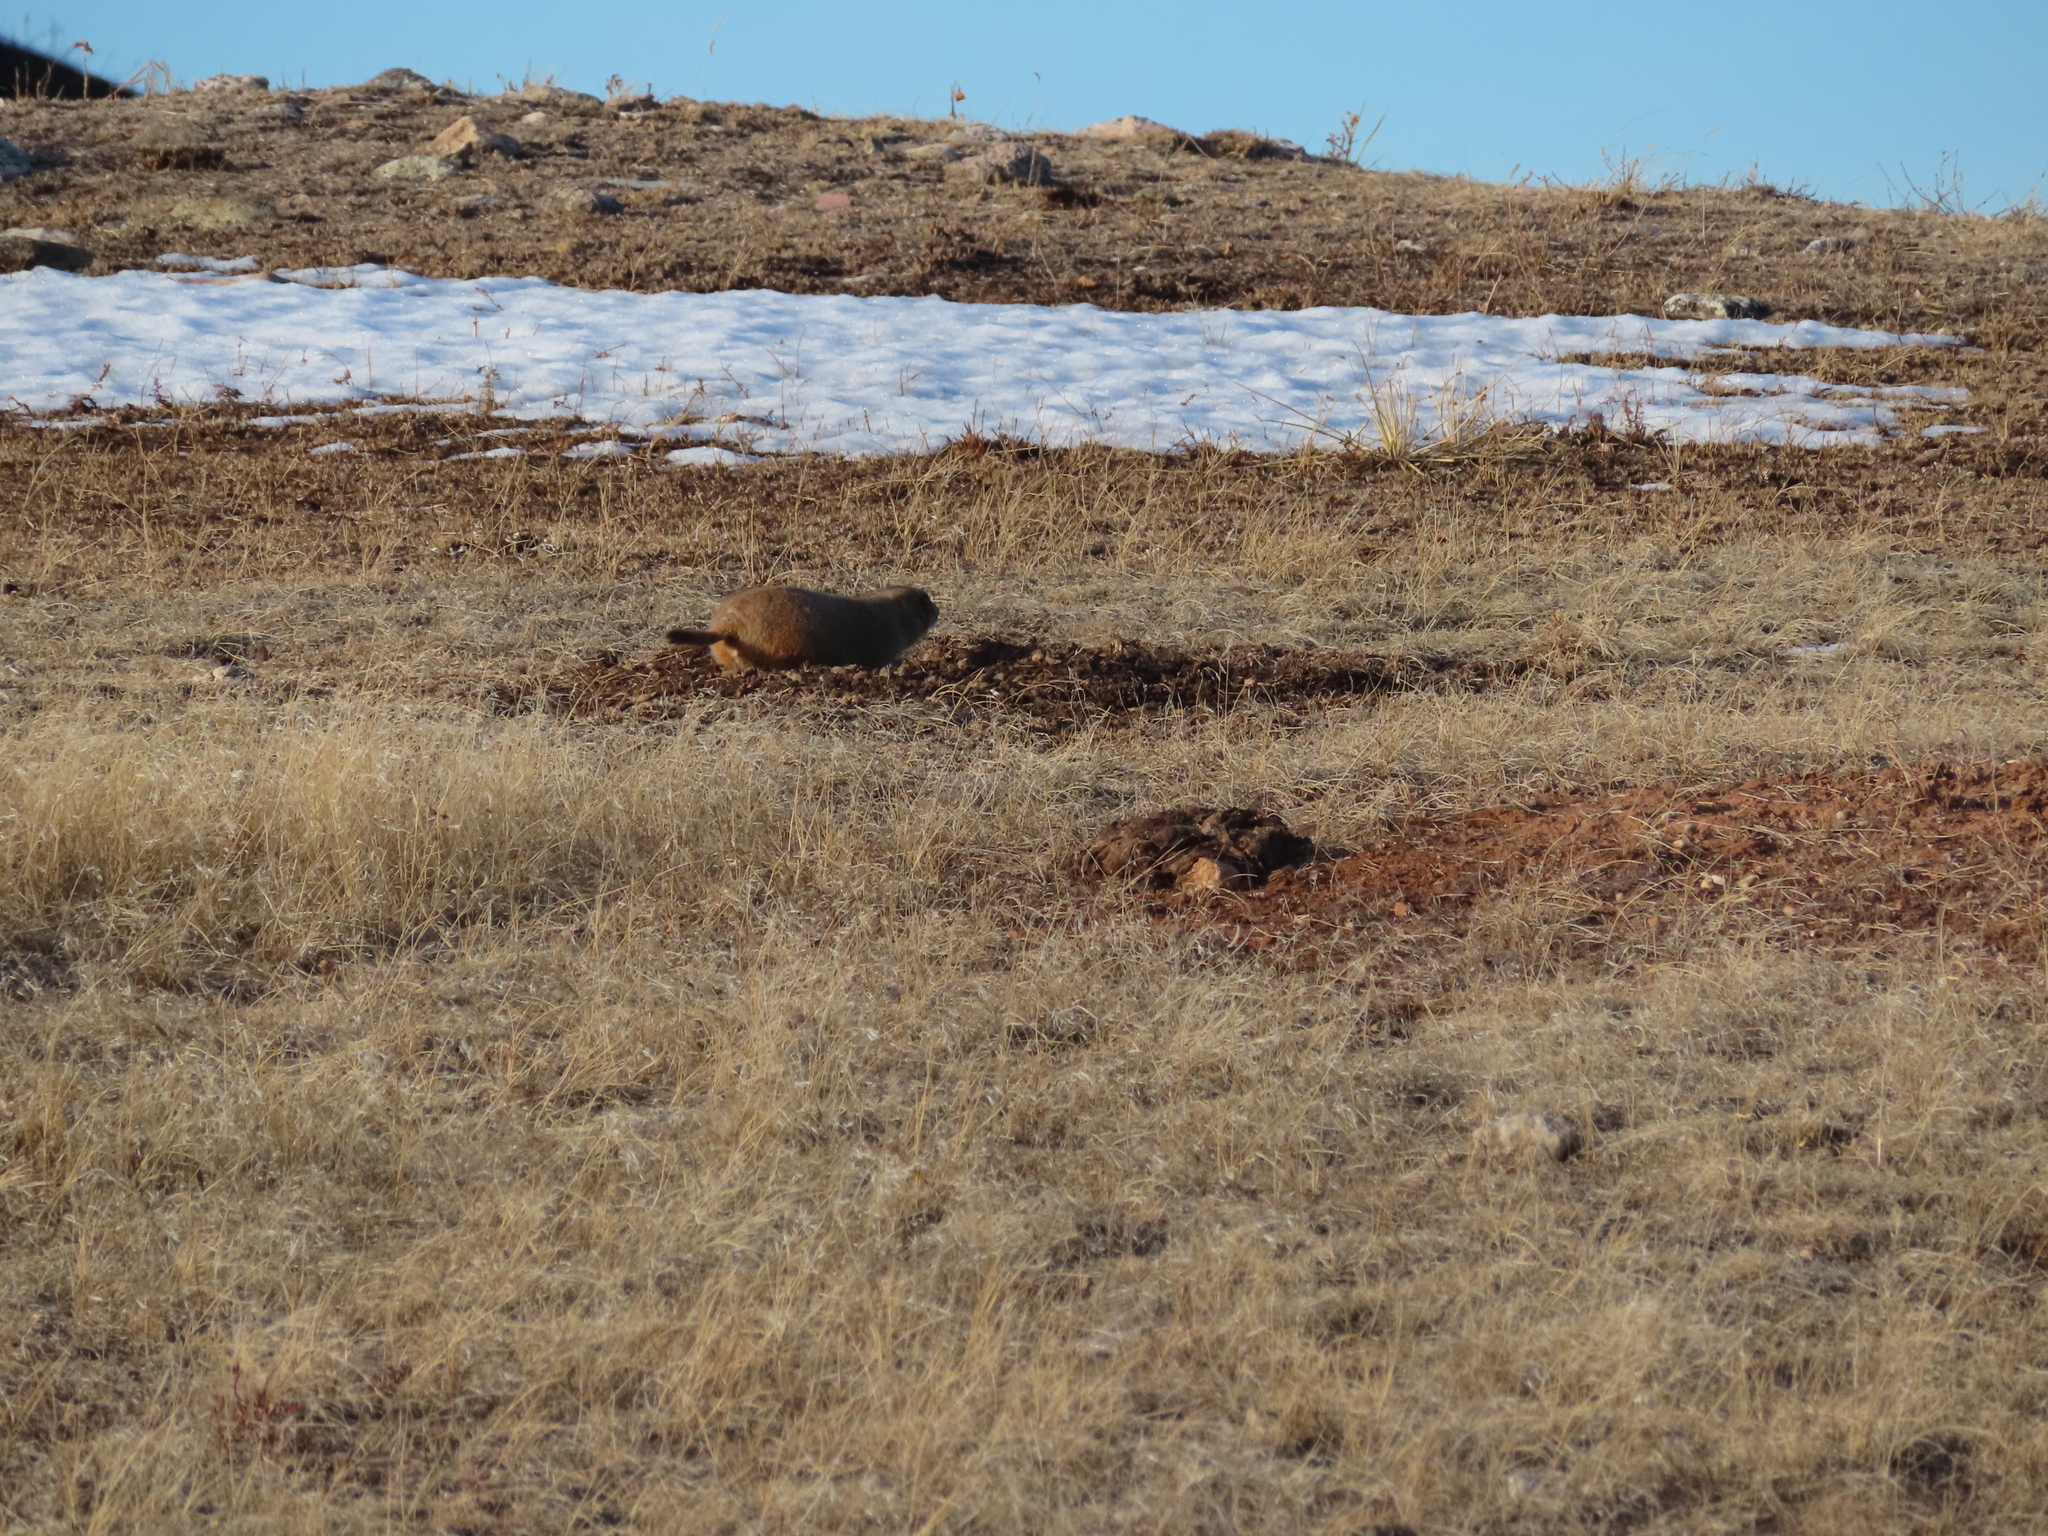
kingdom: Animalia
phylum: Chordata
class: Mammalia
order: Rodentia
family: Sciuridae
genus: Cynomys
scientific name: Cynomys ludovicianus
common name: Black-tailed prairie dog
